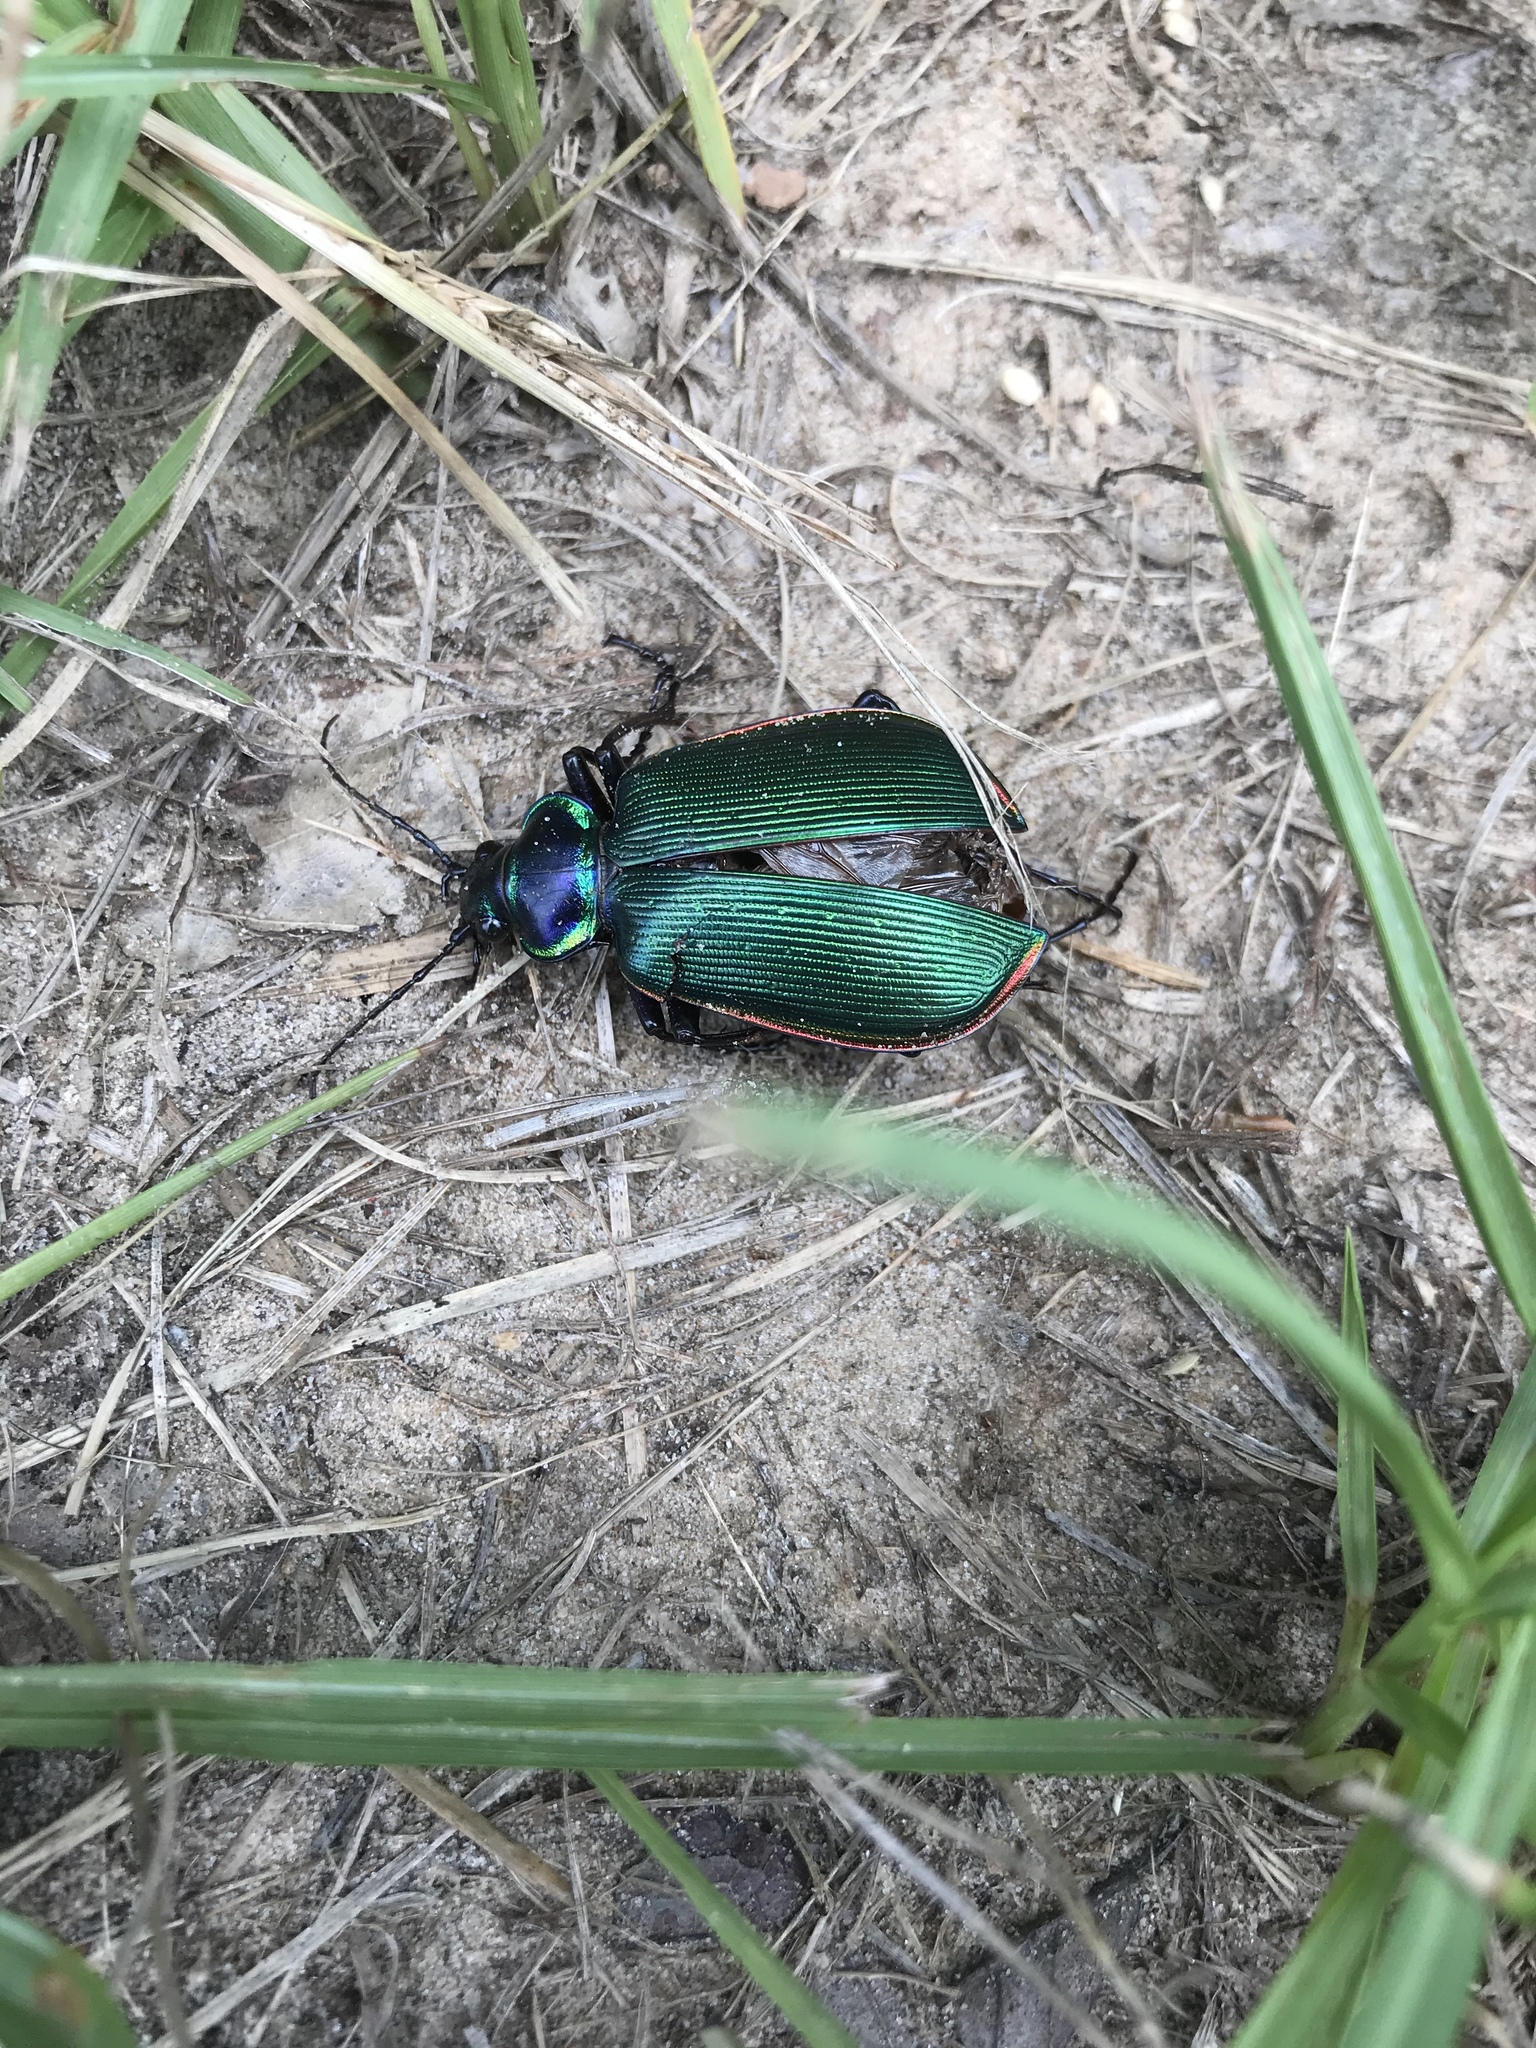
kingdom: Animalia
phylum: Arthropoda
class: Insecta
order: Coleoptera
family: Carabidae
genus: Calosoma
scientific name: Calosoma scrutator
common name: Fiery searcher beetle
